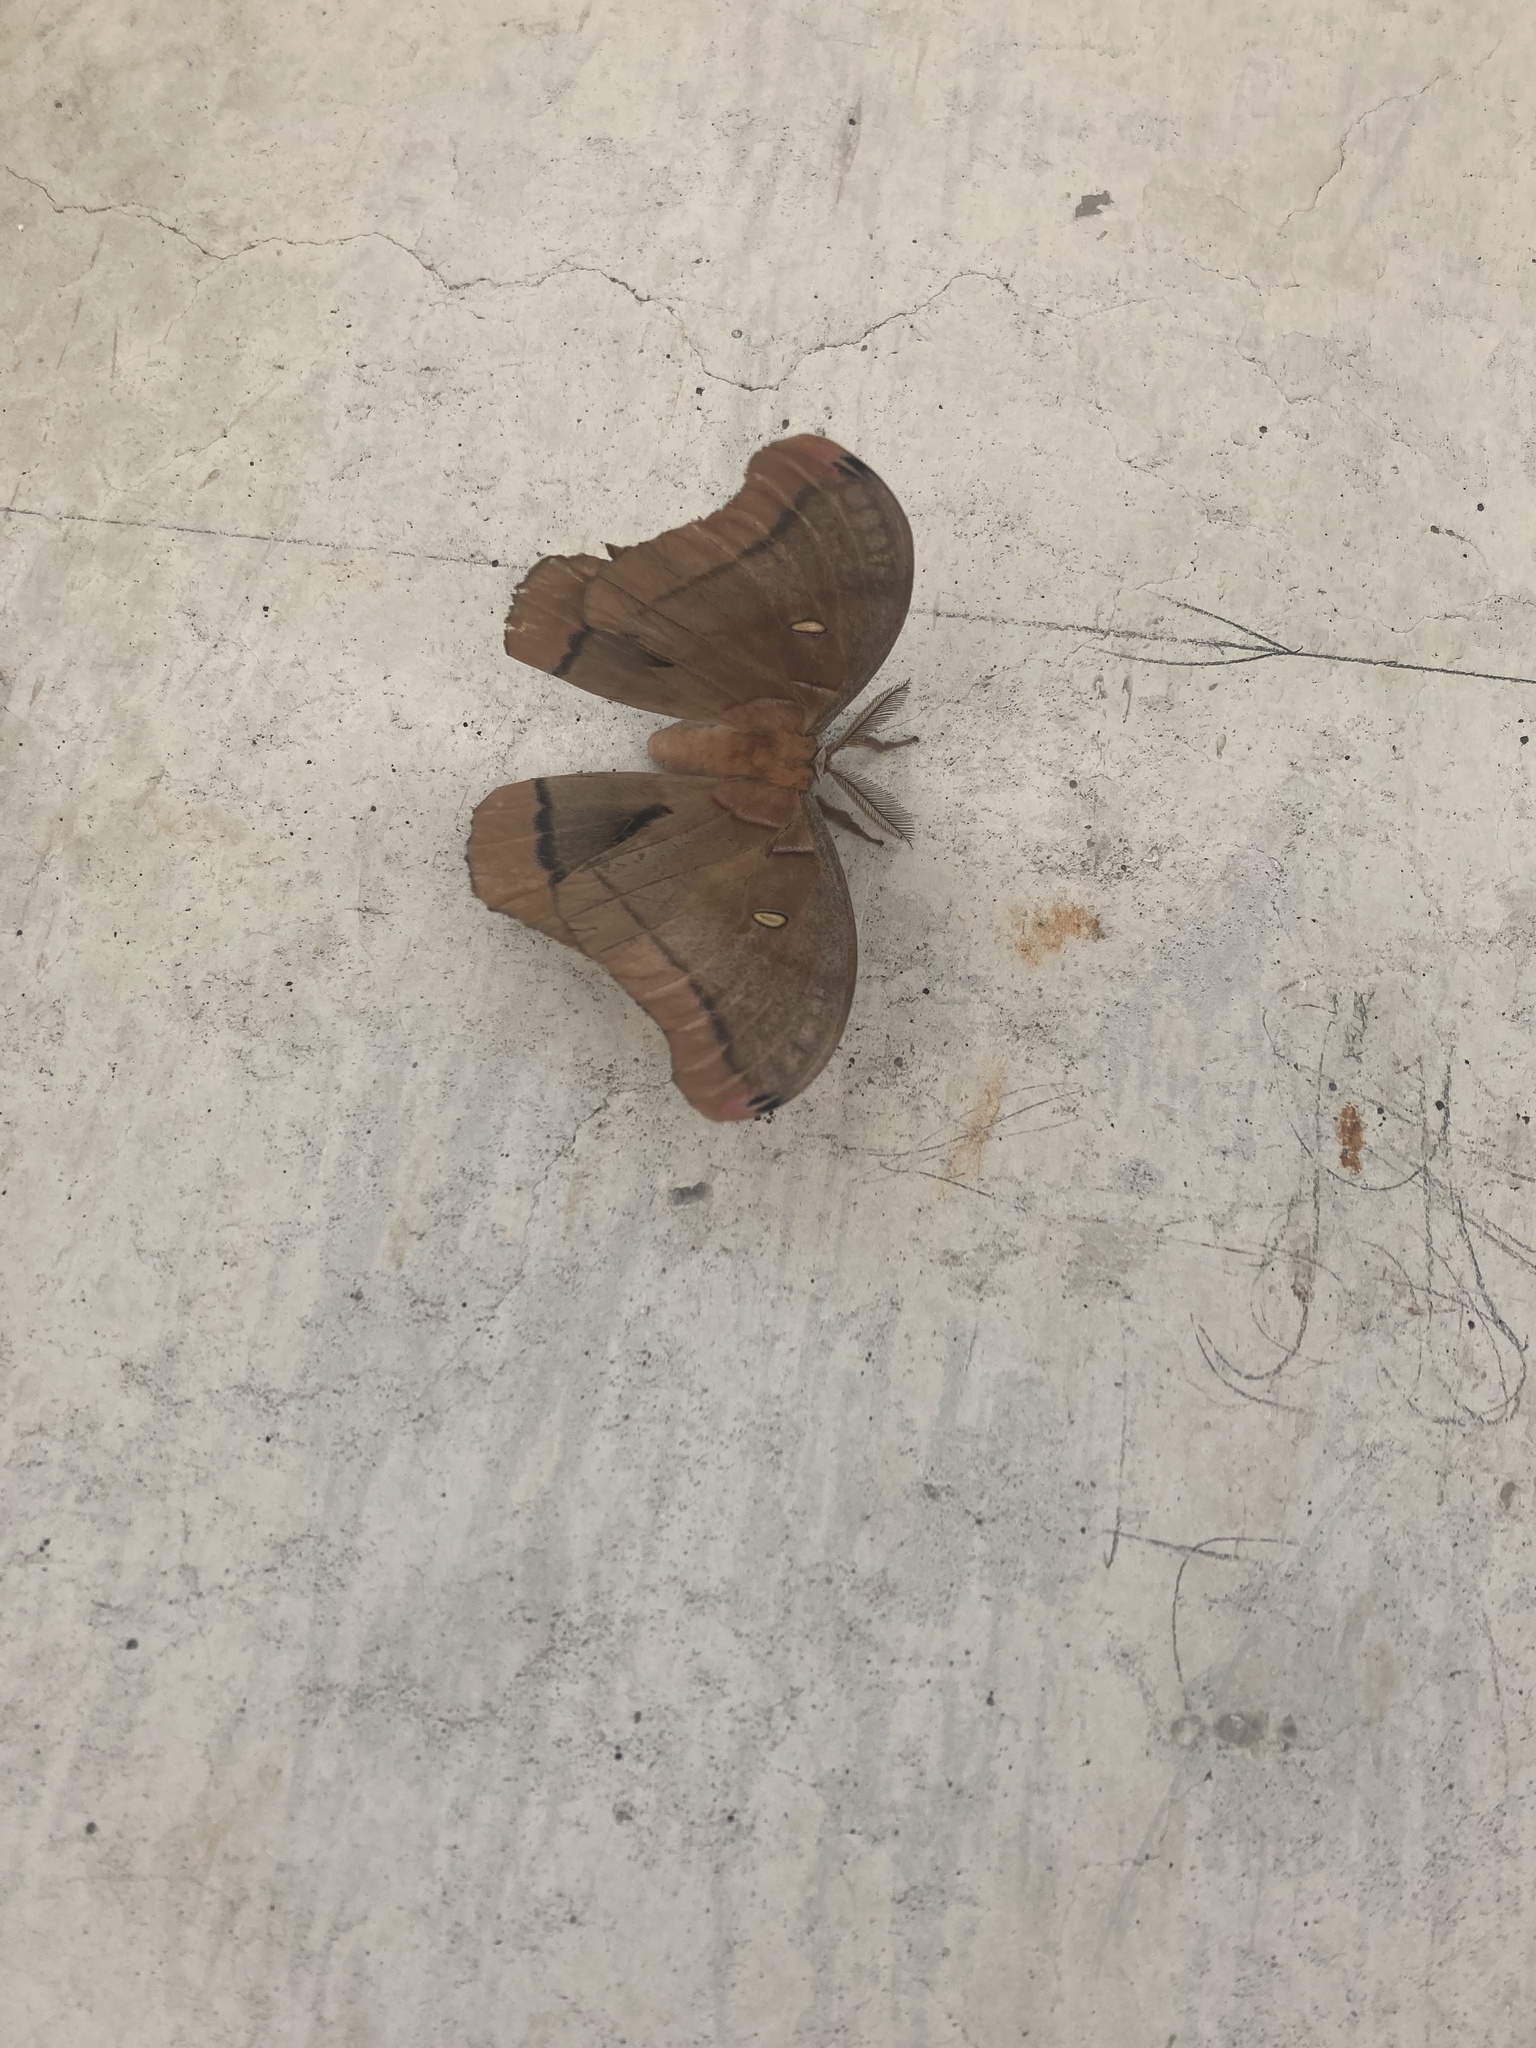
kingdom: Animalia
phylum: Arthropoda
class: Insecta
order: Lepidoptera
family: Saturniidae
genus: Antheraea
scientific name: Antheraea polyphemus
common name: Polyphemus moth
